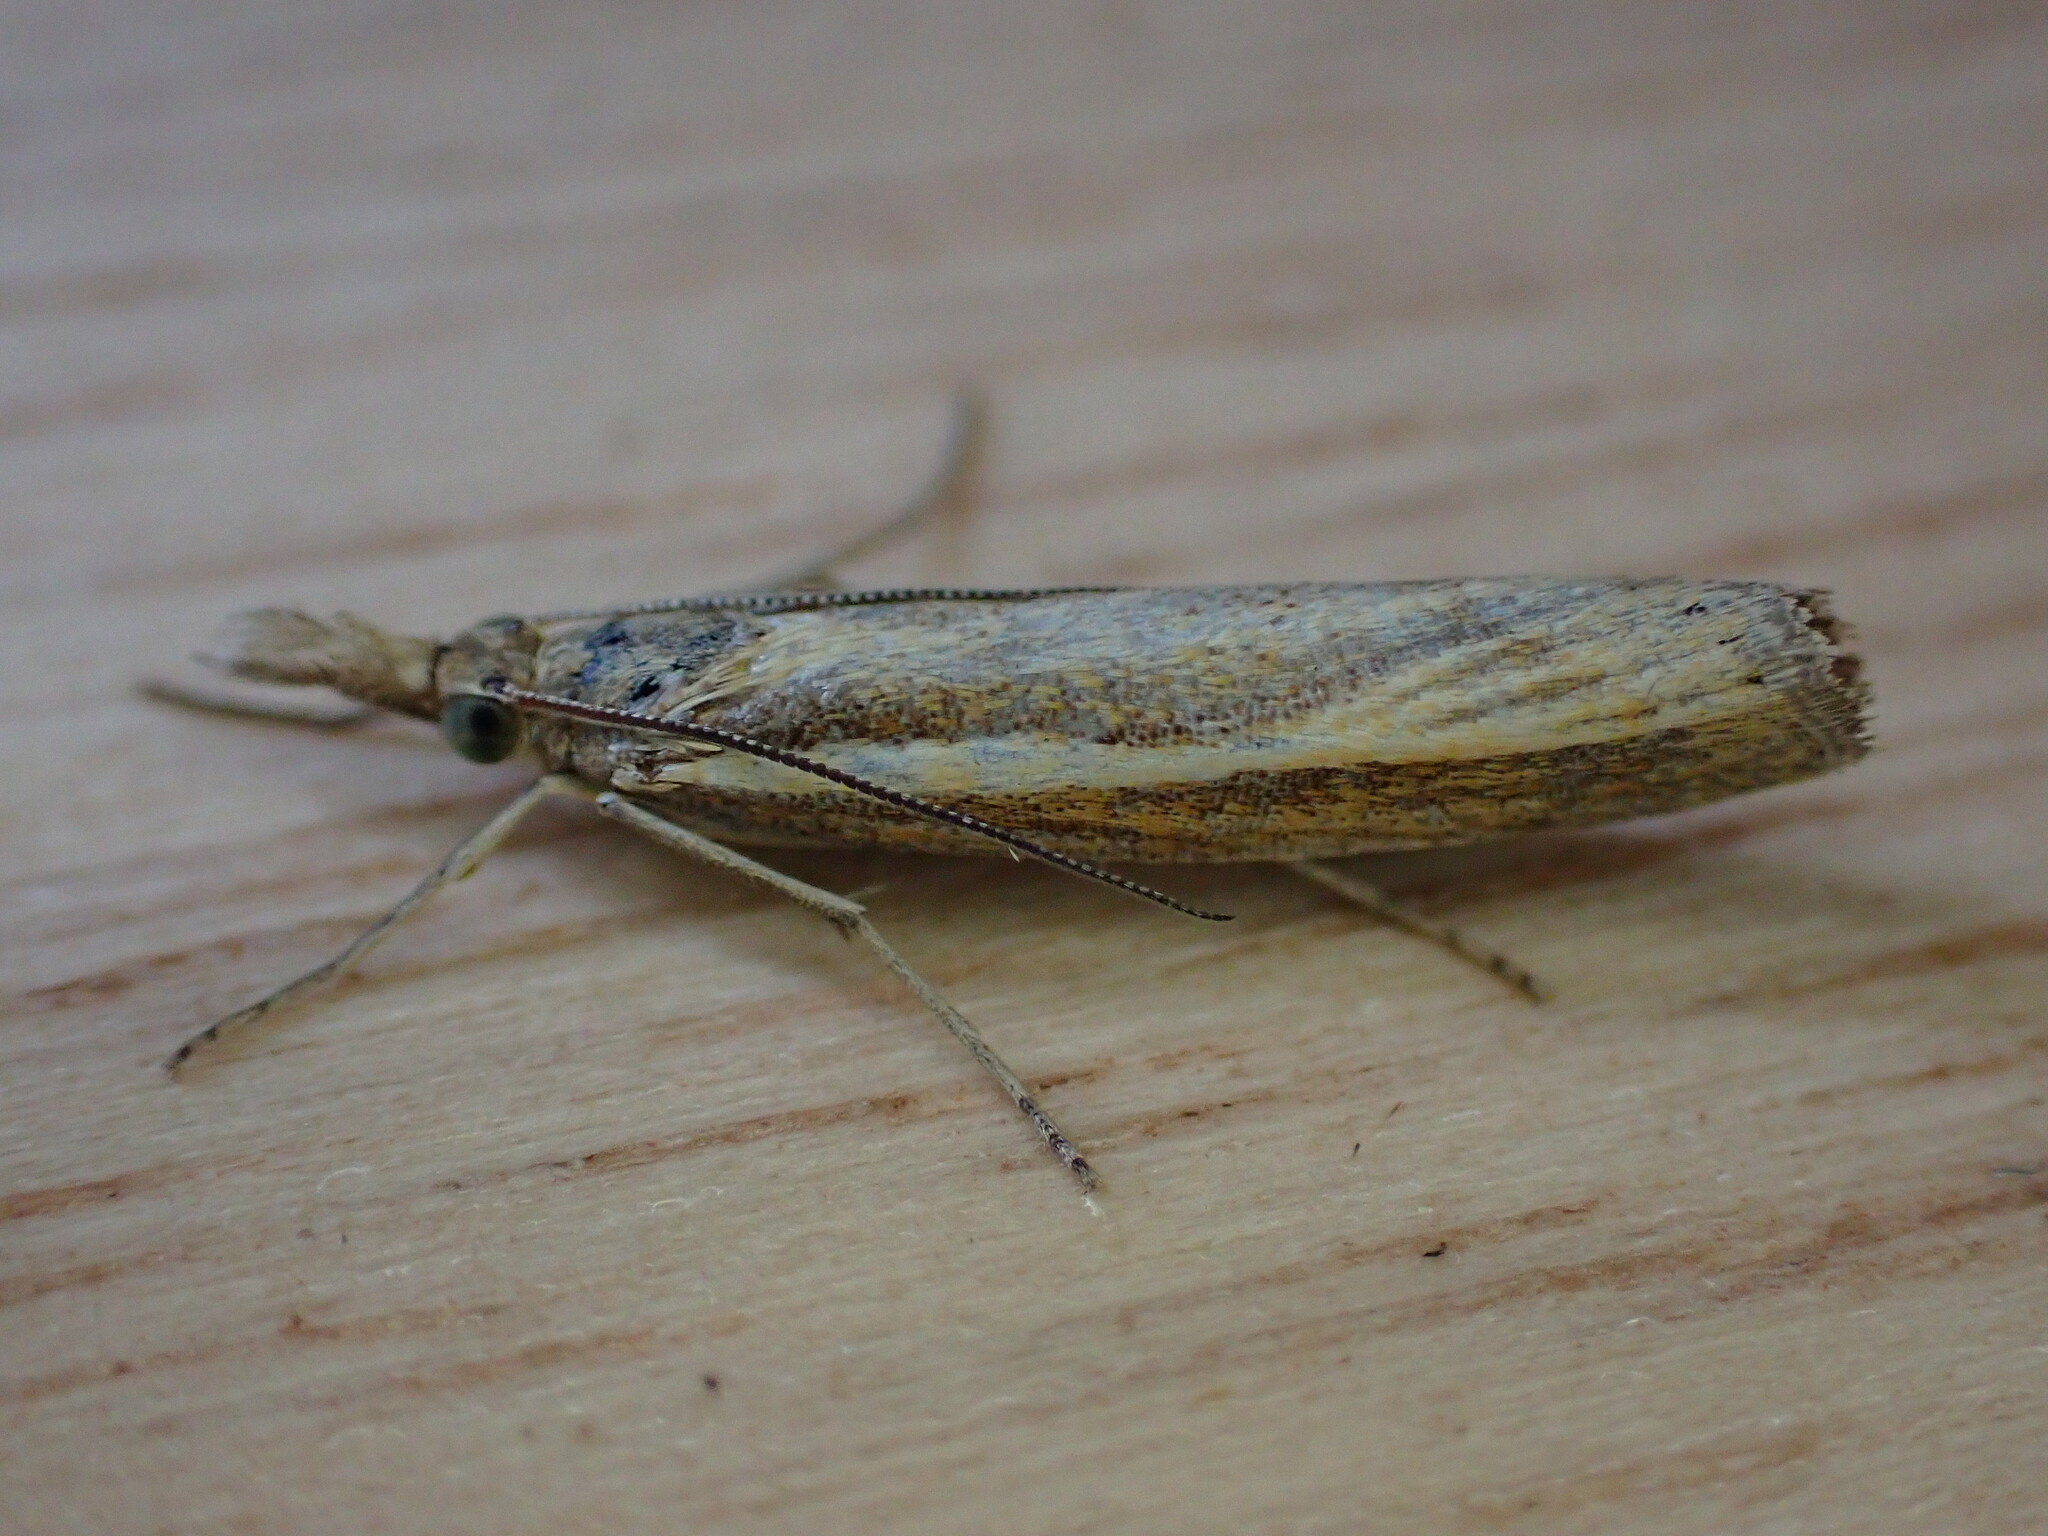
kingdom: Animalia
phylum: Arthropoda
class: Insecta
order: Lepidoptera
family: Crambidae
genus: Agriphila
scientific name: Agriphila tristellus
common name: Common grass-veneer
